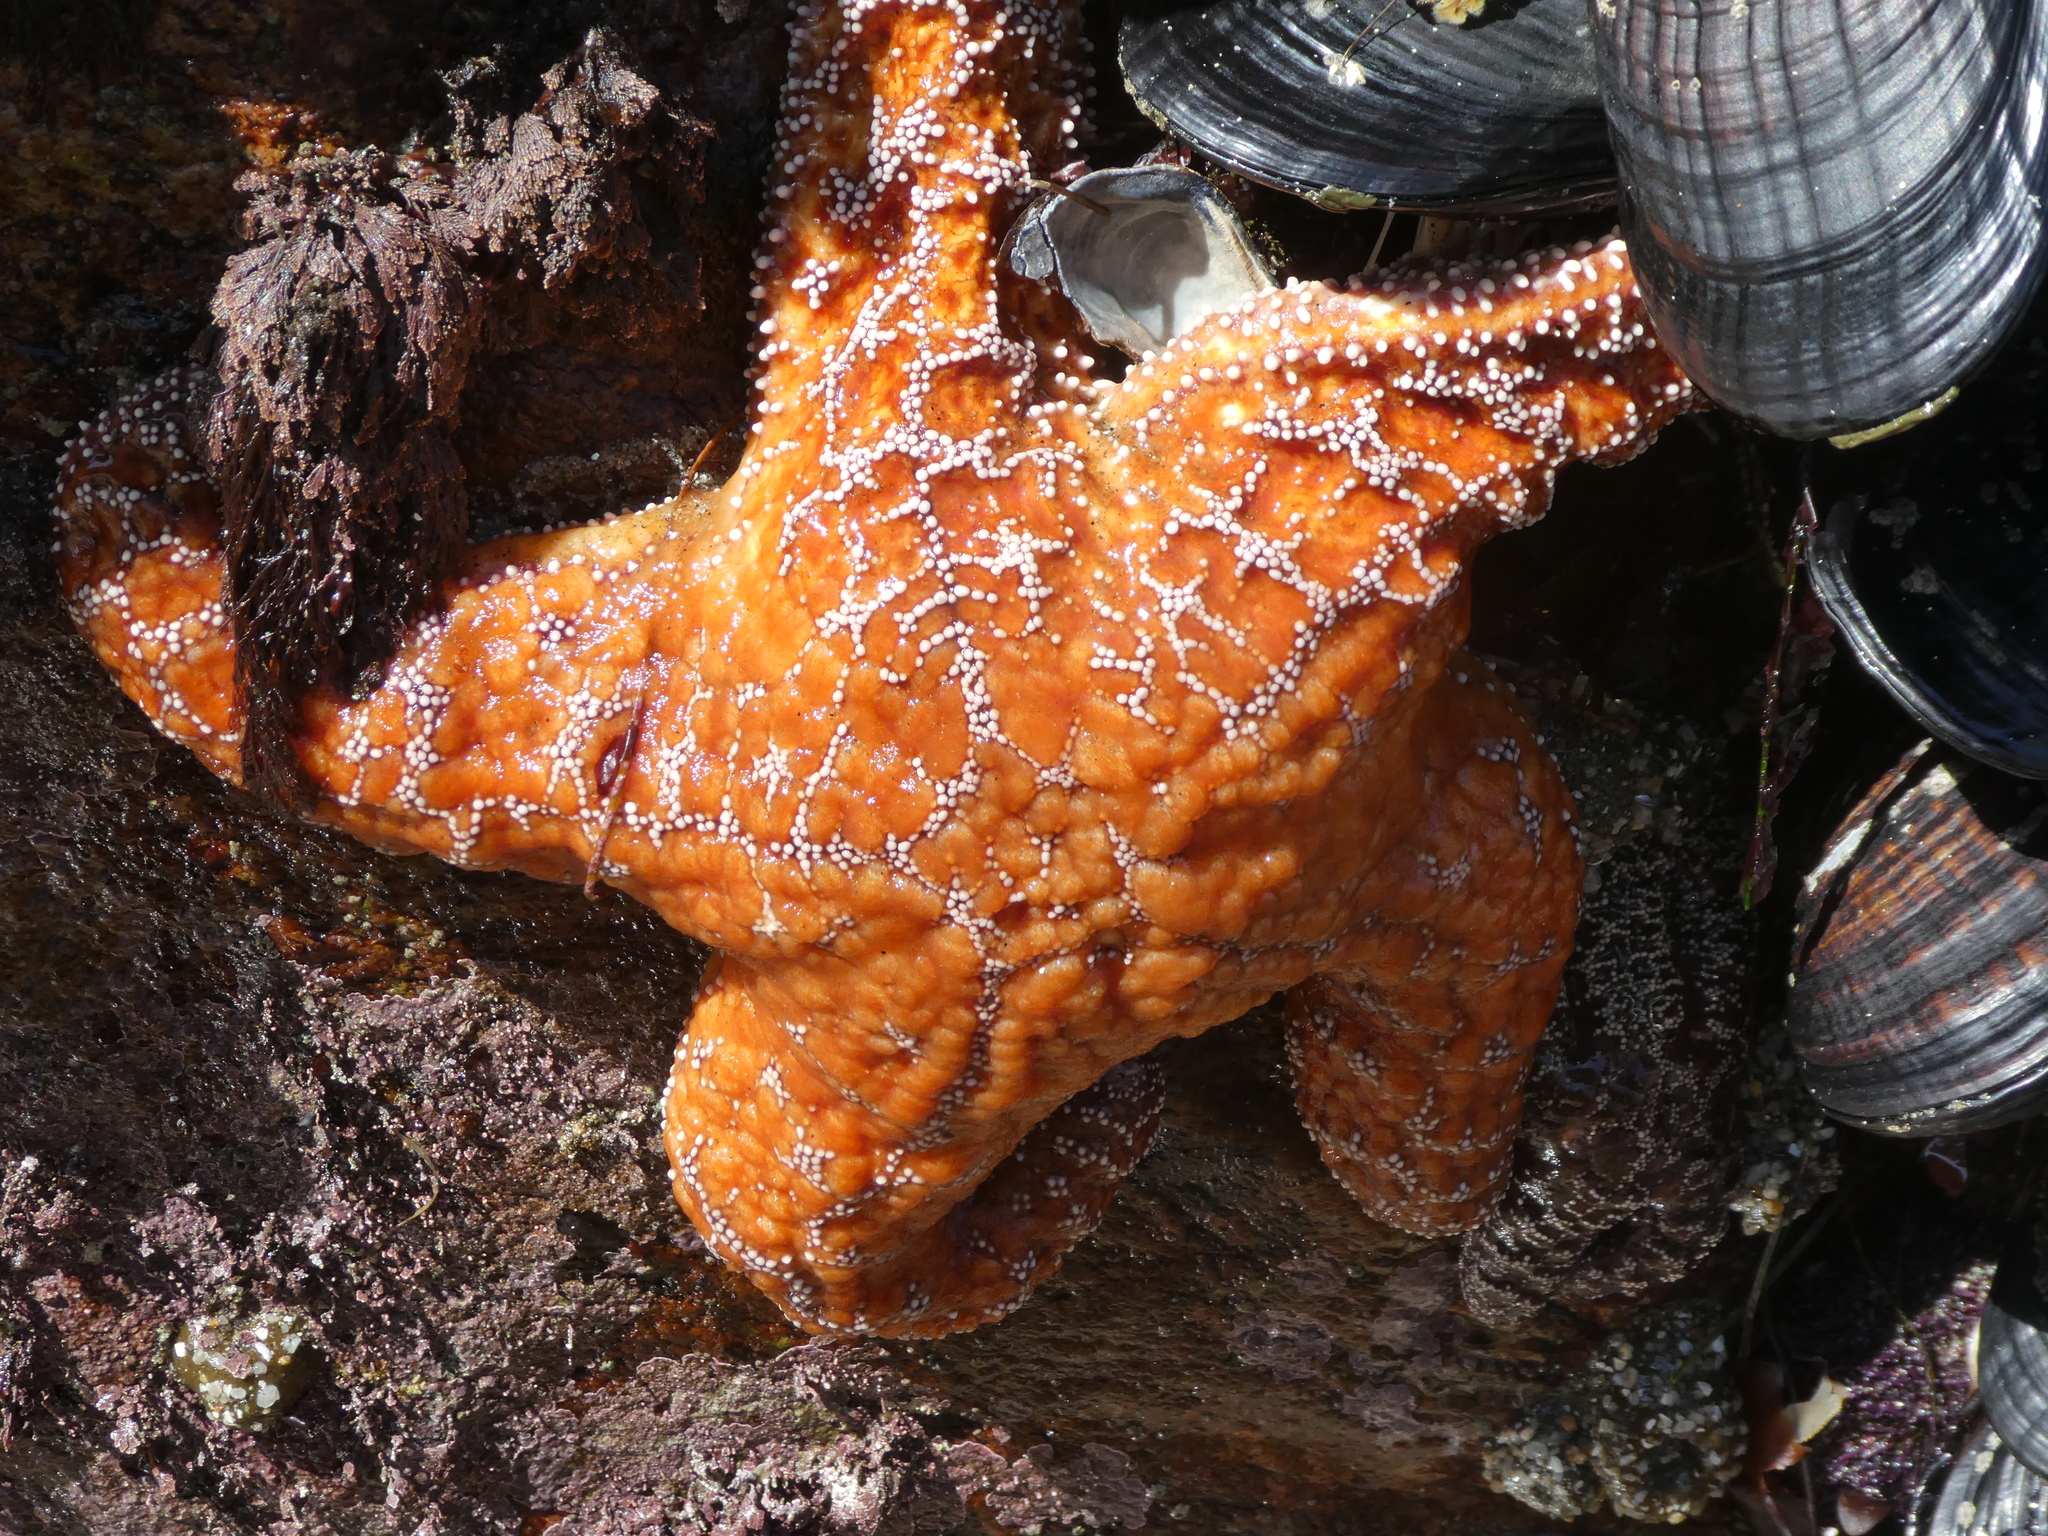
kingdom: Animalia
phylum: Echinodermata
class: Asteroidea
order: Forcipulatida
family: Asteriidae
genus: Pisaster
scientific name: Pisaster ochraceus
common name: Ochre stars
